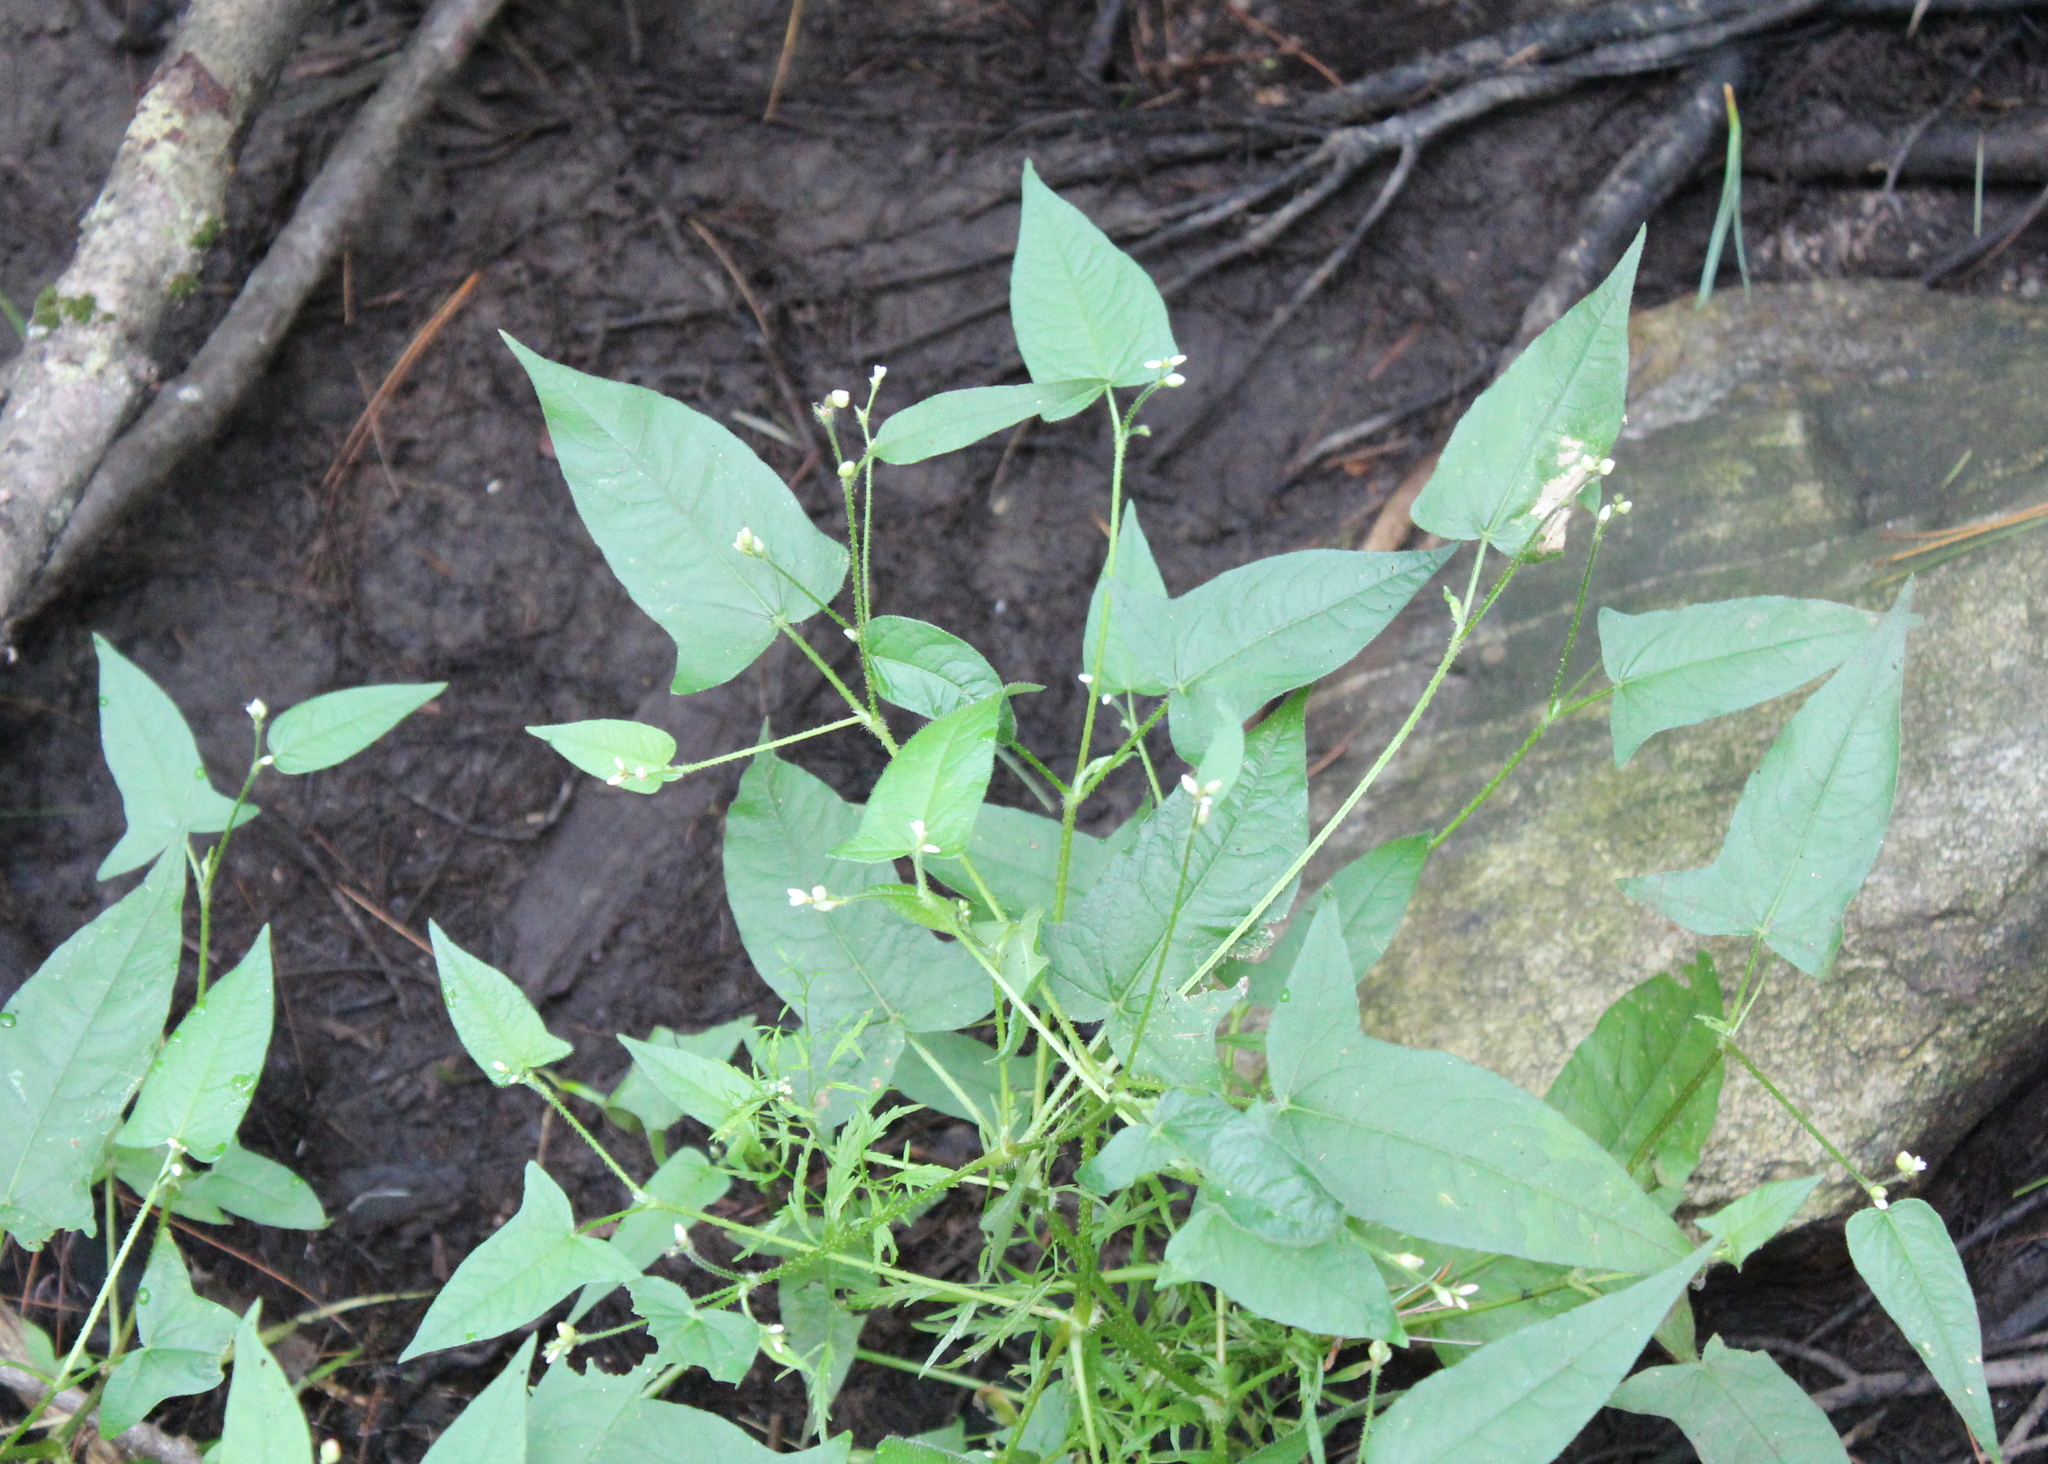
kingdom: Plantae
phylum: Tracheophyta
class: Magnoliopsida
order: Caryophyllales
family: Polygonaceae
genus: Persicaria
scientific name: Persicaria arifolia
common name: Halberd-leaved tear-thumb
